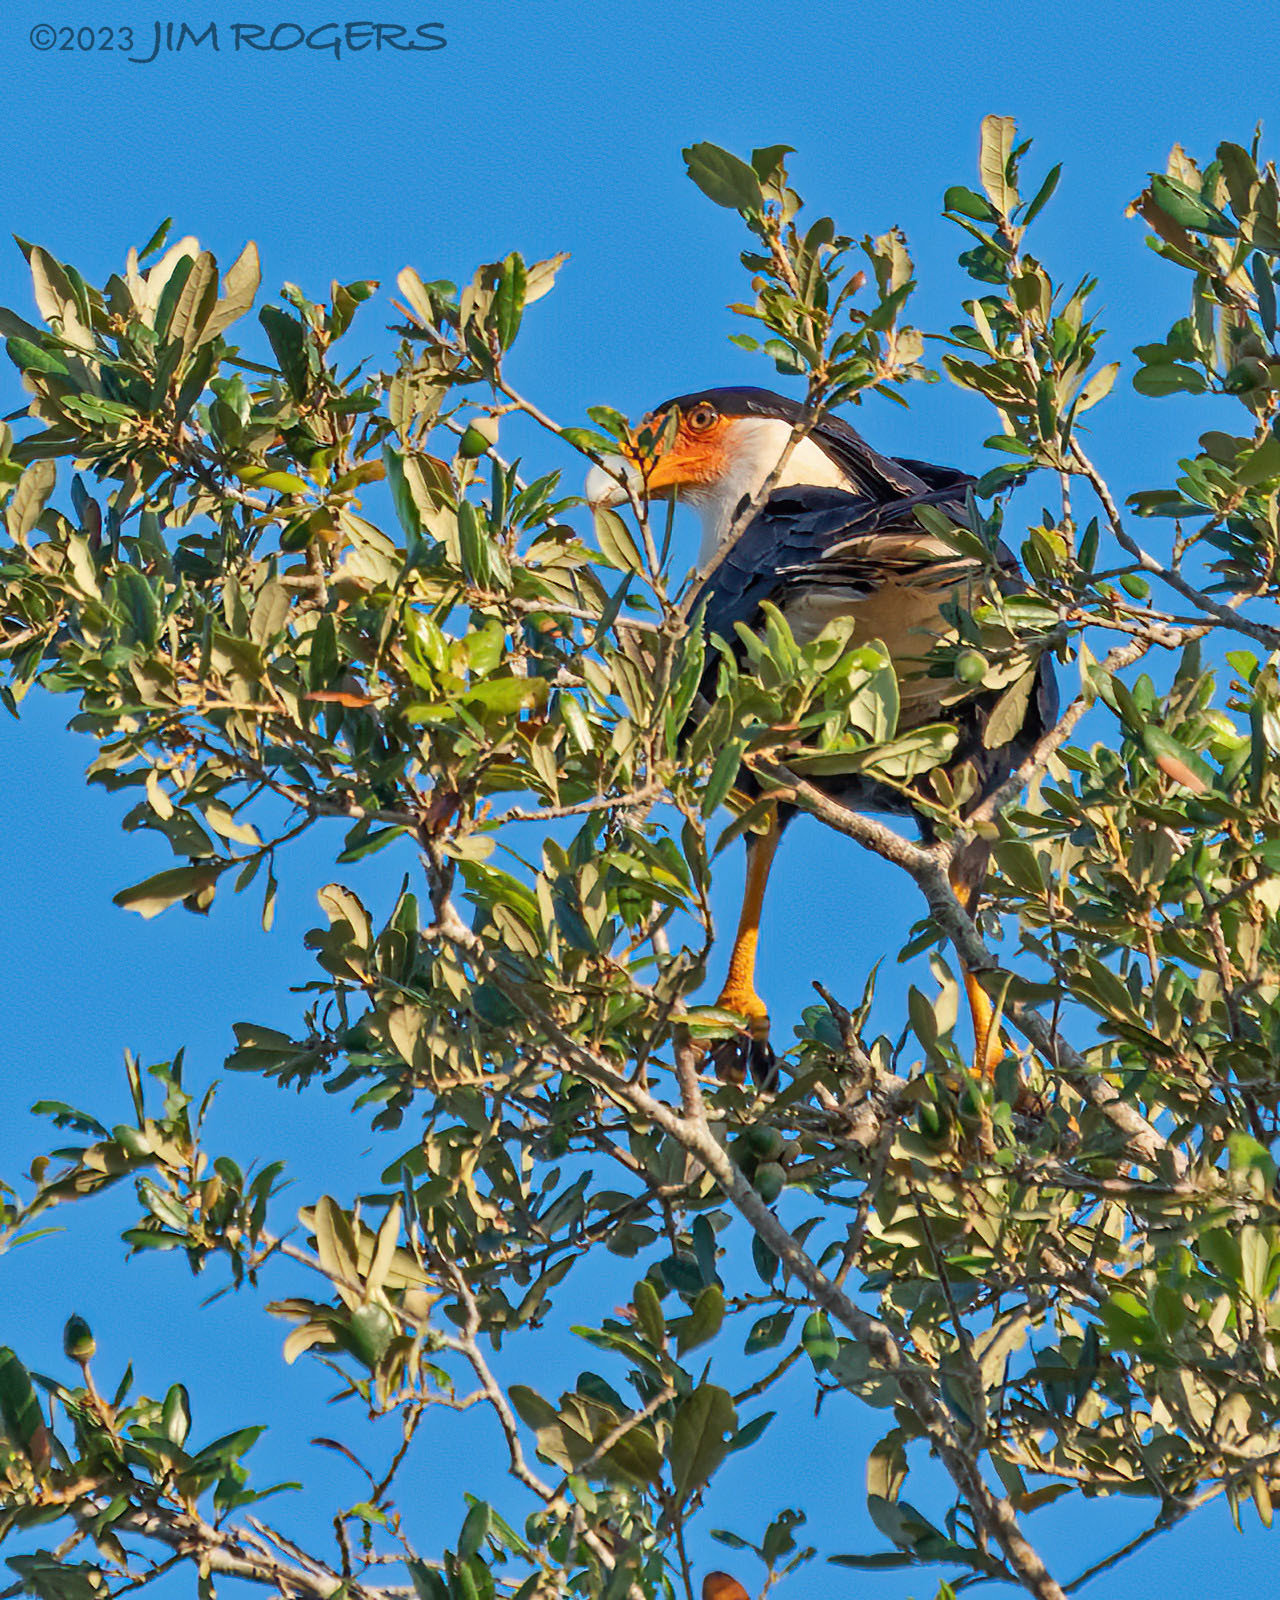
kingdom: Animalia
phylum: Chordata
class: Aves
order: Falconiformes
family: Falconidae
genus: Caracara
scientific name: Caracara plancus
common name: Southern caracara
